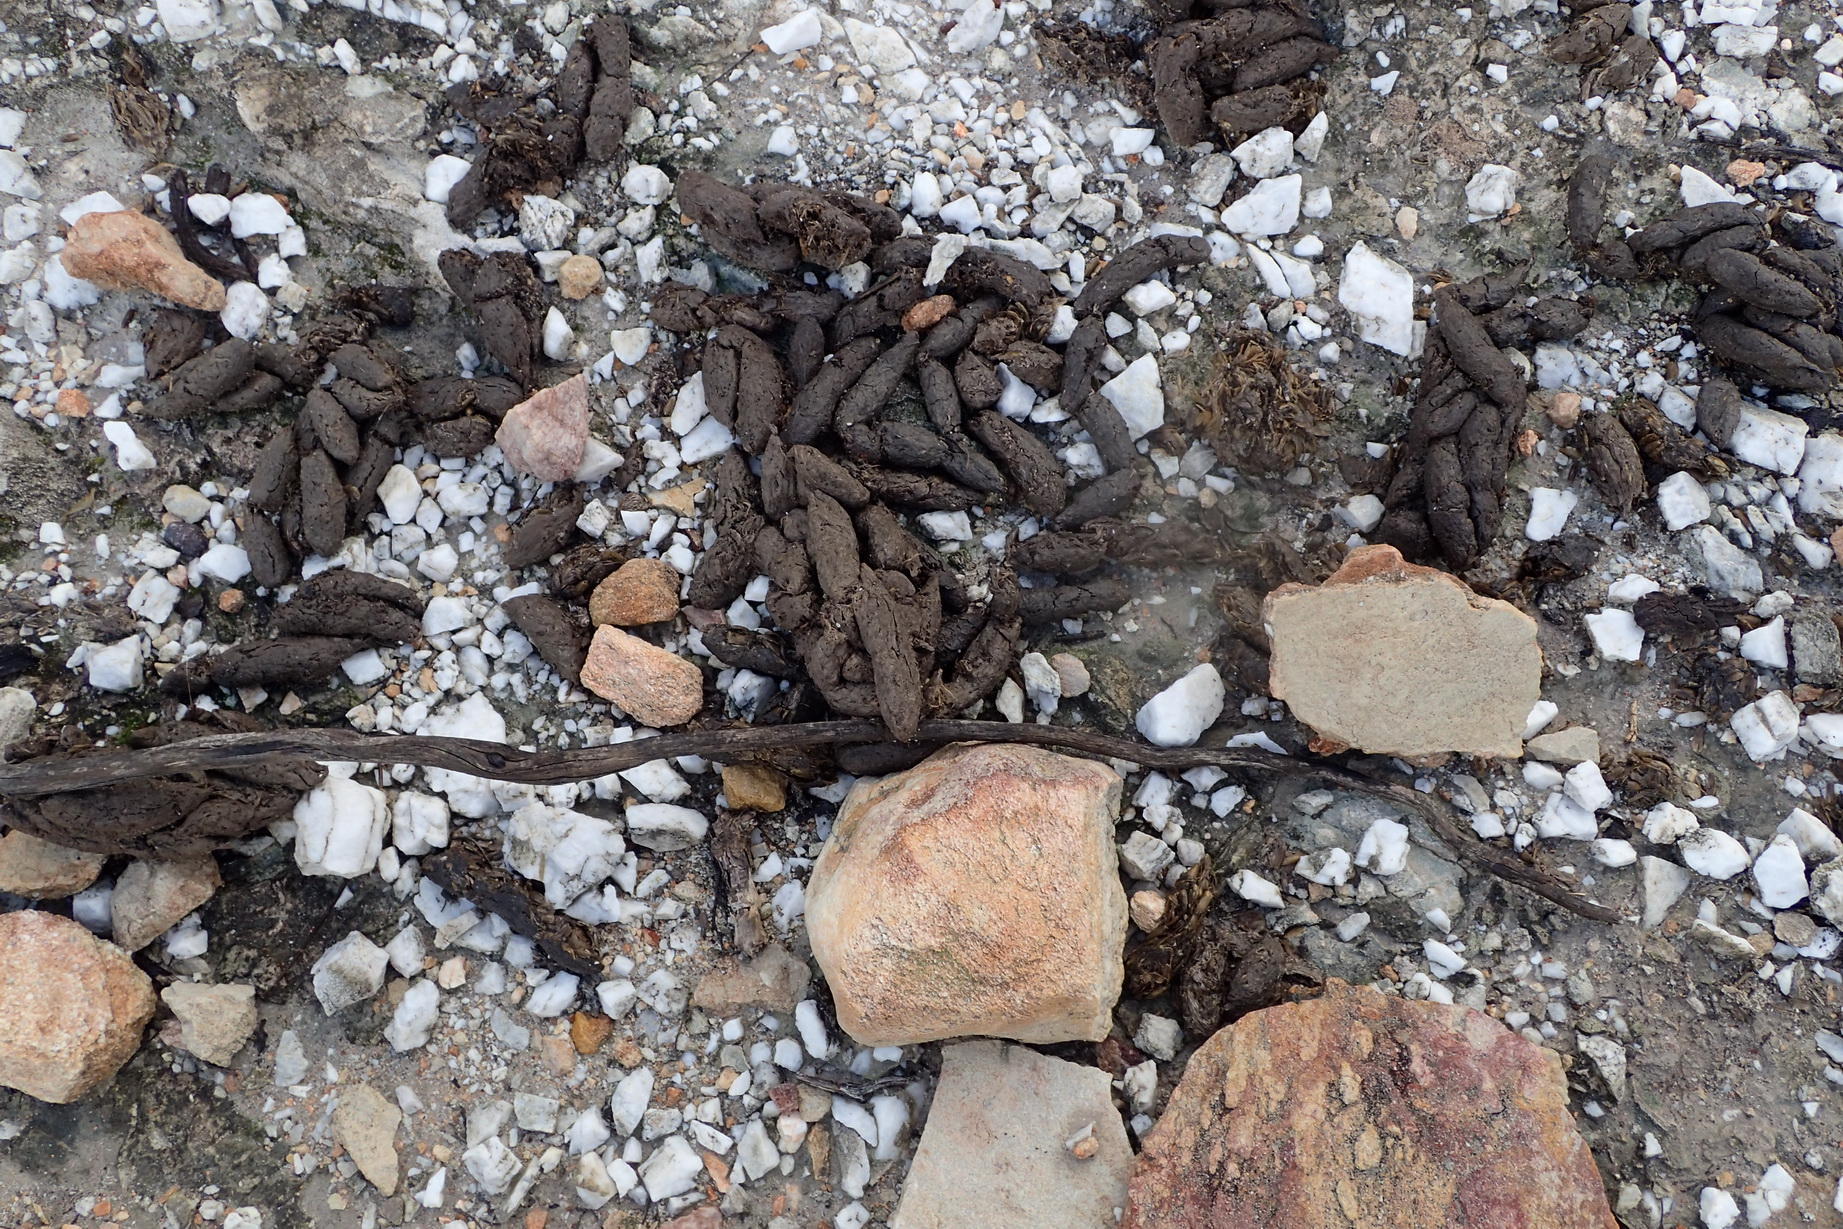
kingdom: Animalia
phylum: Chordata
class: Mammalia
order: Rodentia
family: Hystricidae
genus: Hystrix
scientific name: Hystrix africaeaustralis
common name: Cape porcupine
